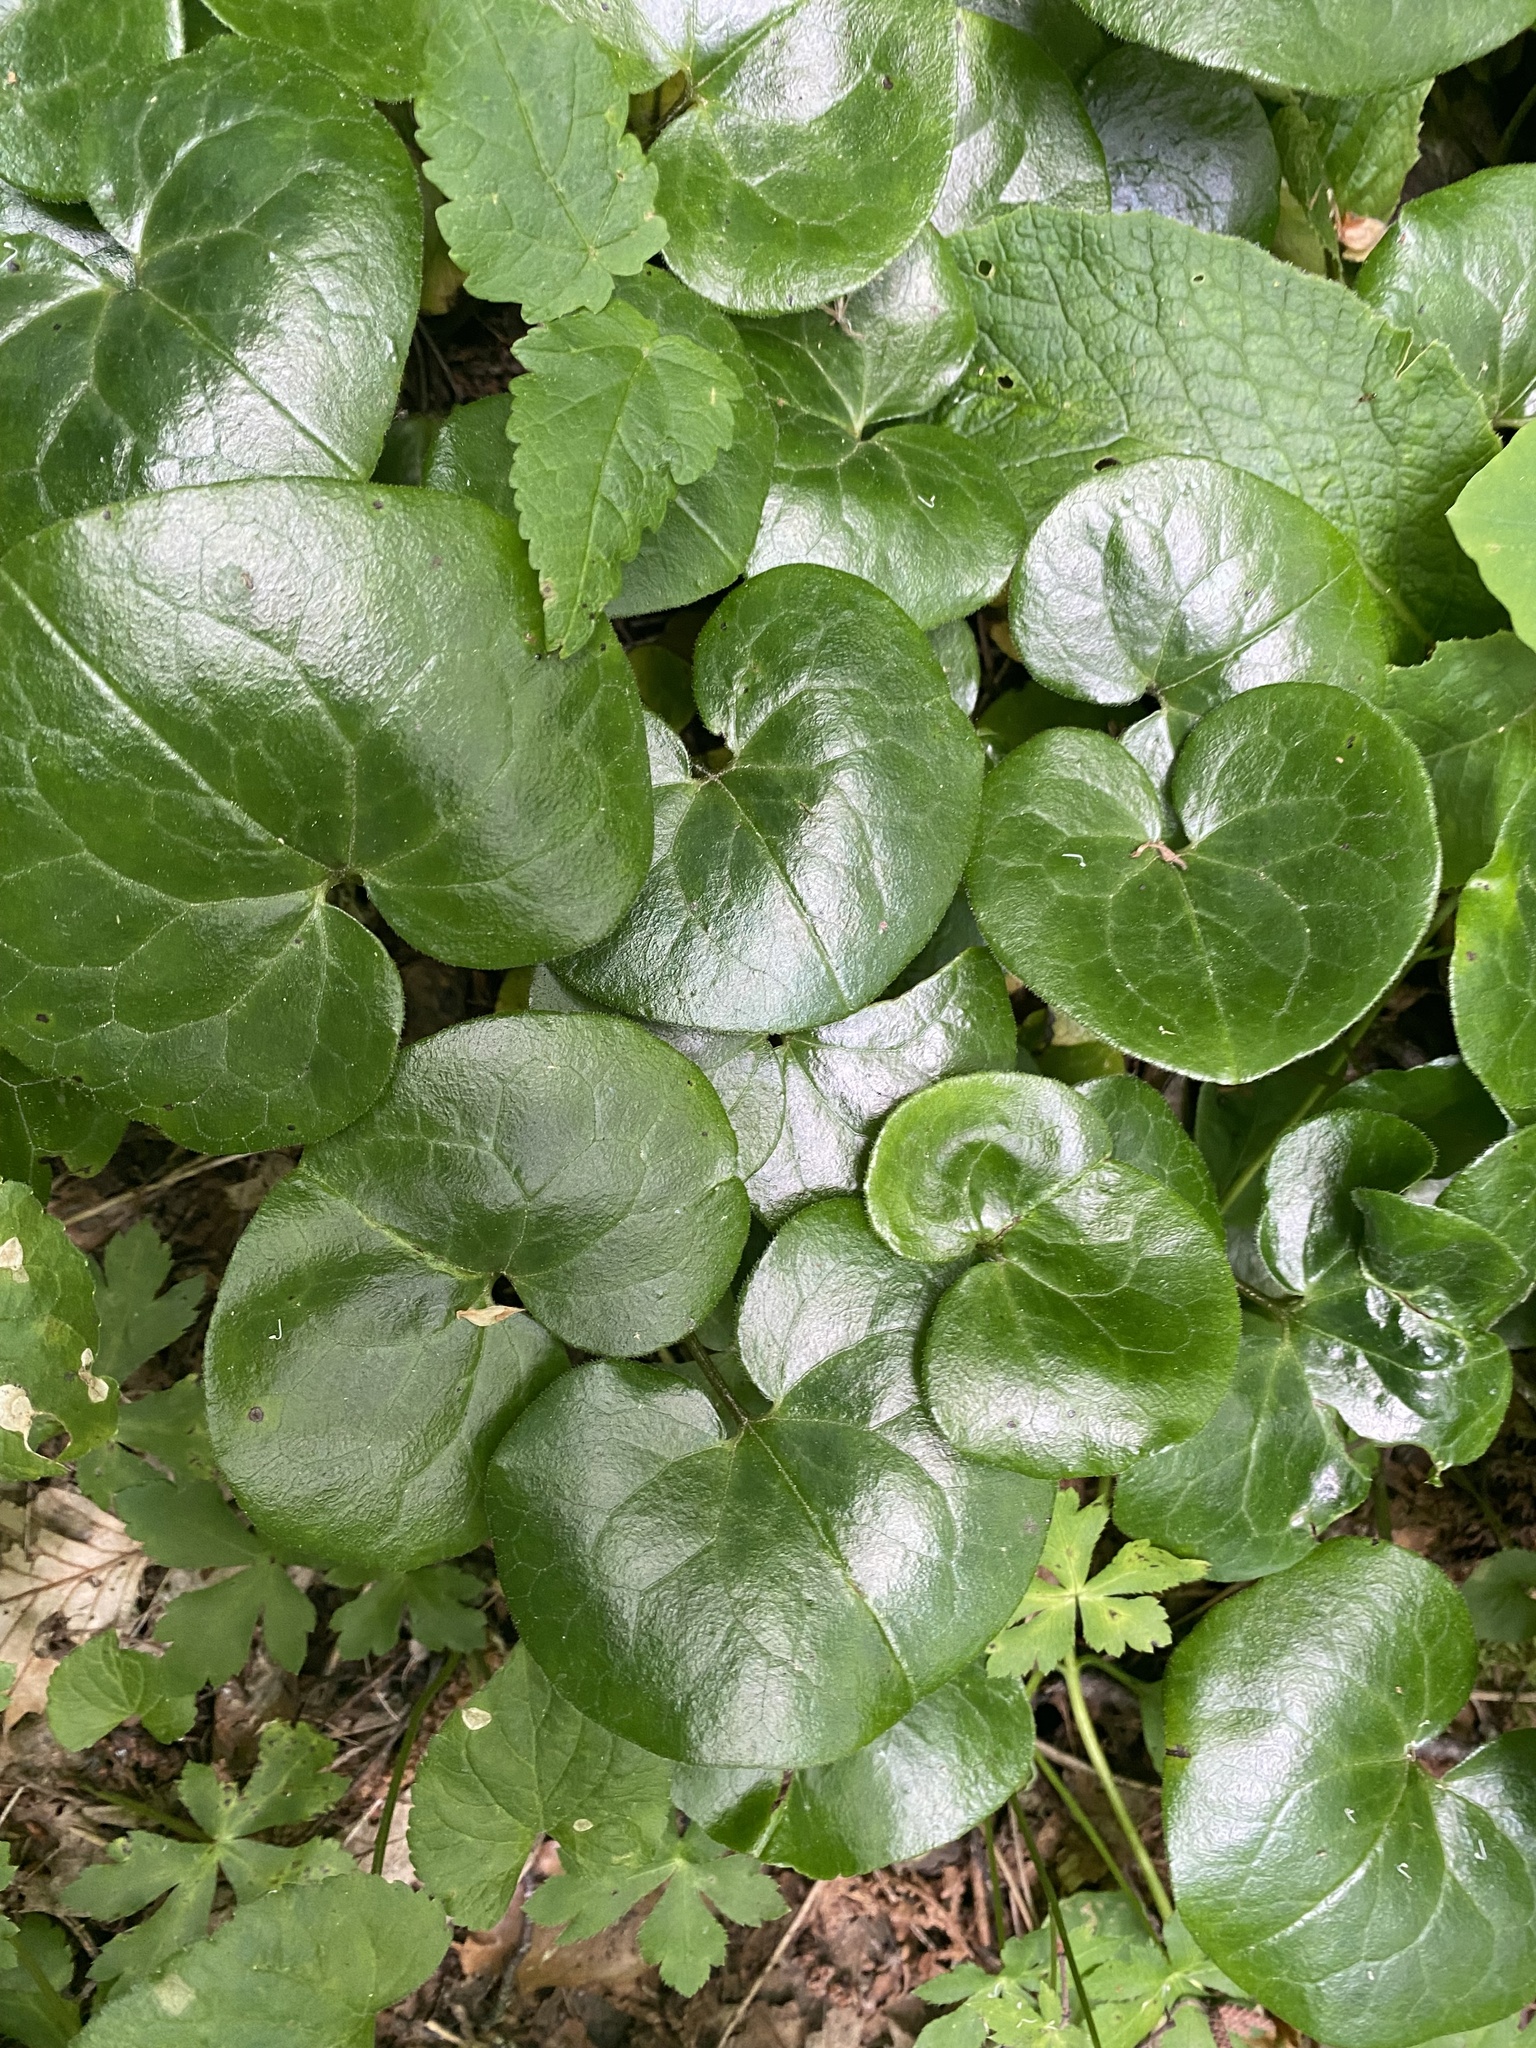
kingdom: Plantae
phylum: Tracheophyta
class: Magnoliopsida
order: Piperales
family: Aristolochiaceae
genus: Asarum
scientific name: Asarum europaeum
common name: Asarabacca
